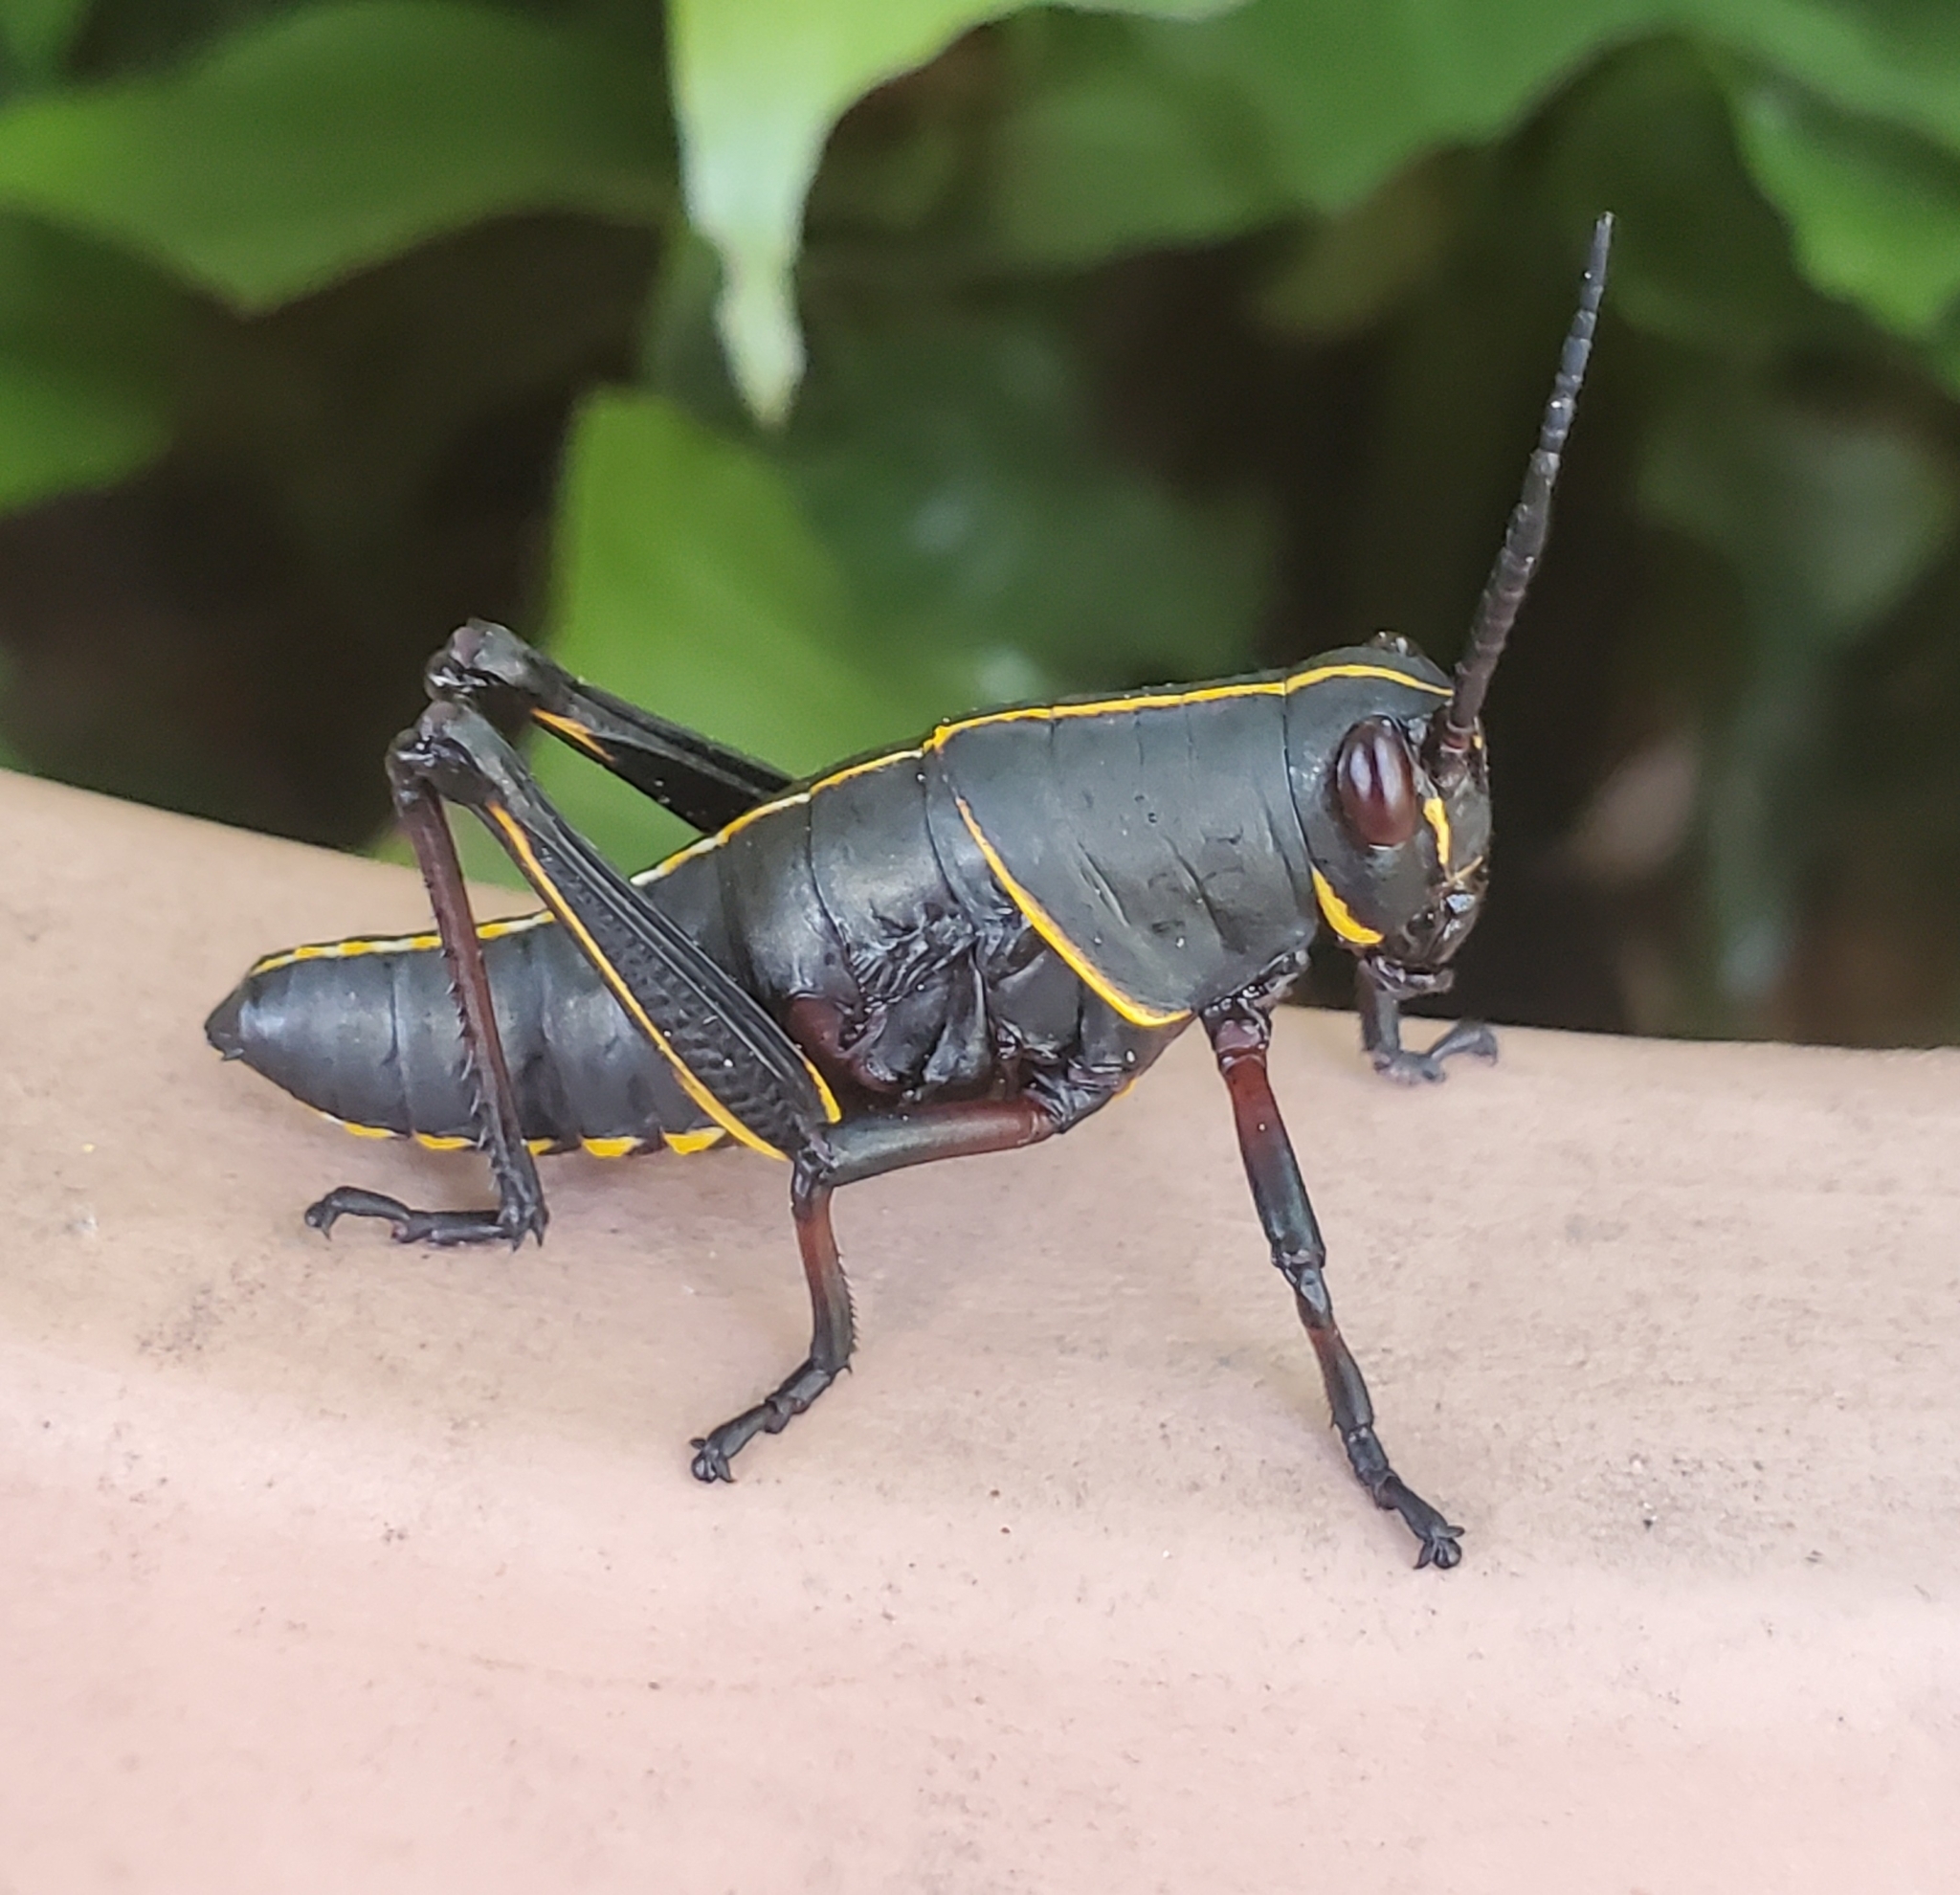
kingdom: Animalia
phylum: Arthropoda
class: Insecta
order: Orthoptera
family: Romaleidae
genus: Romalea
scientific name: Romalea microptera
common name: Eastern lubber grasshopper
